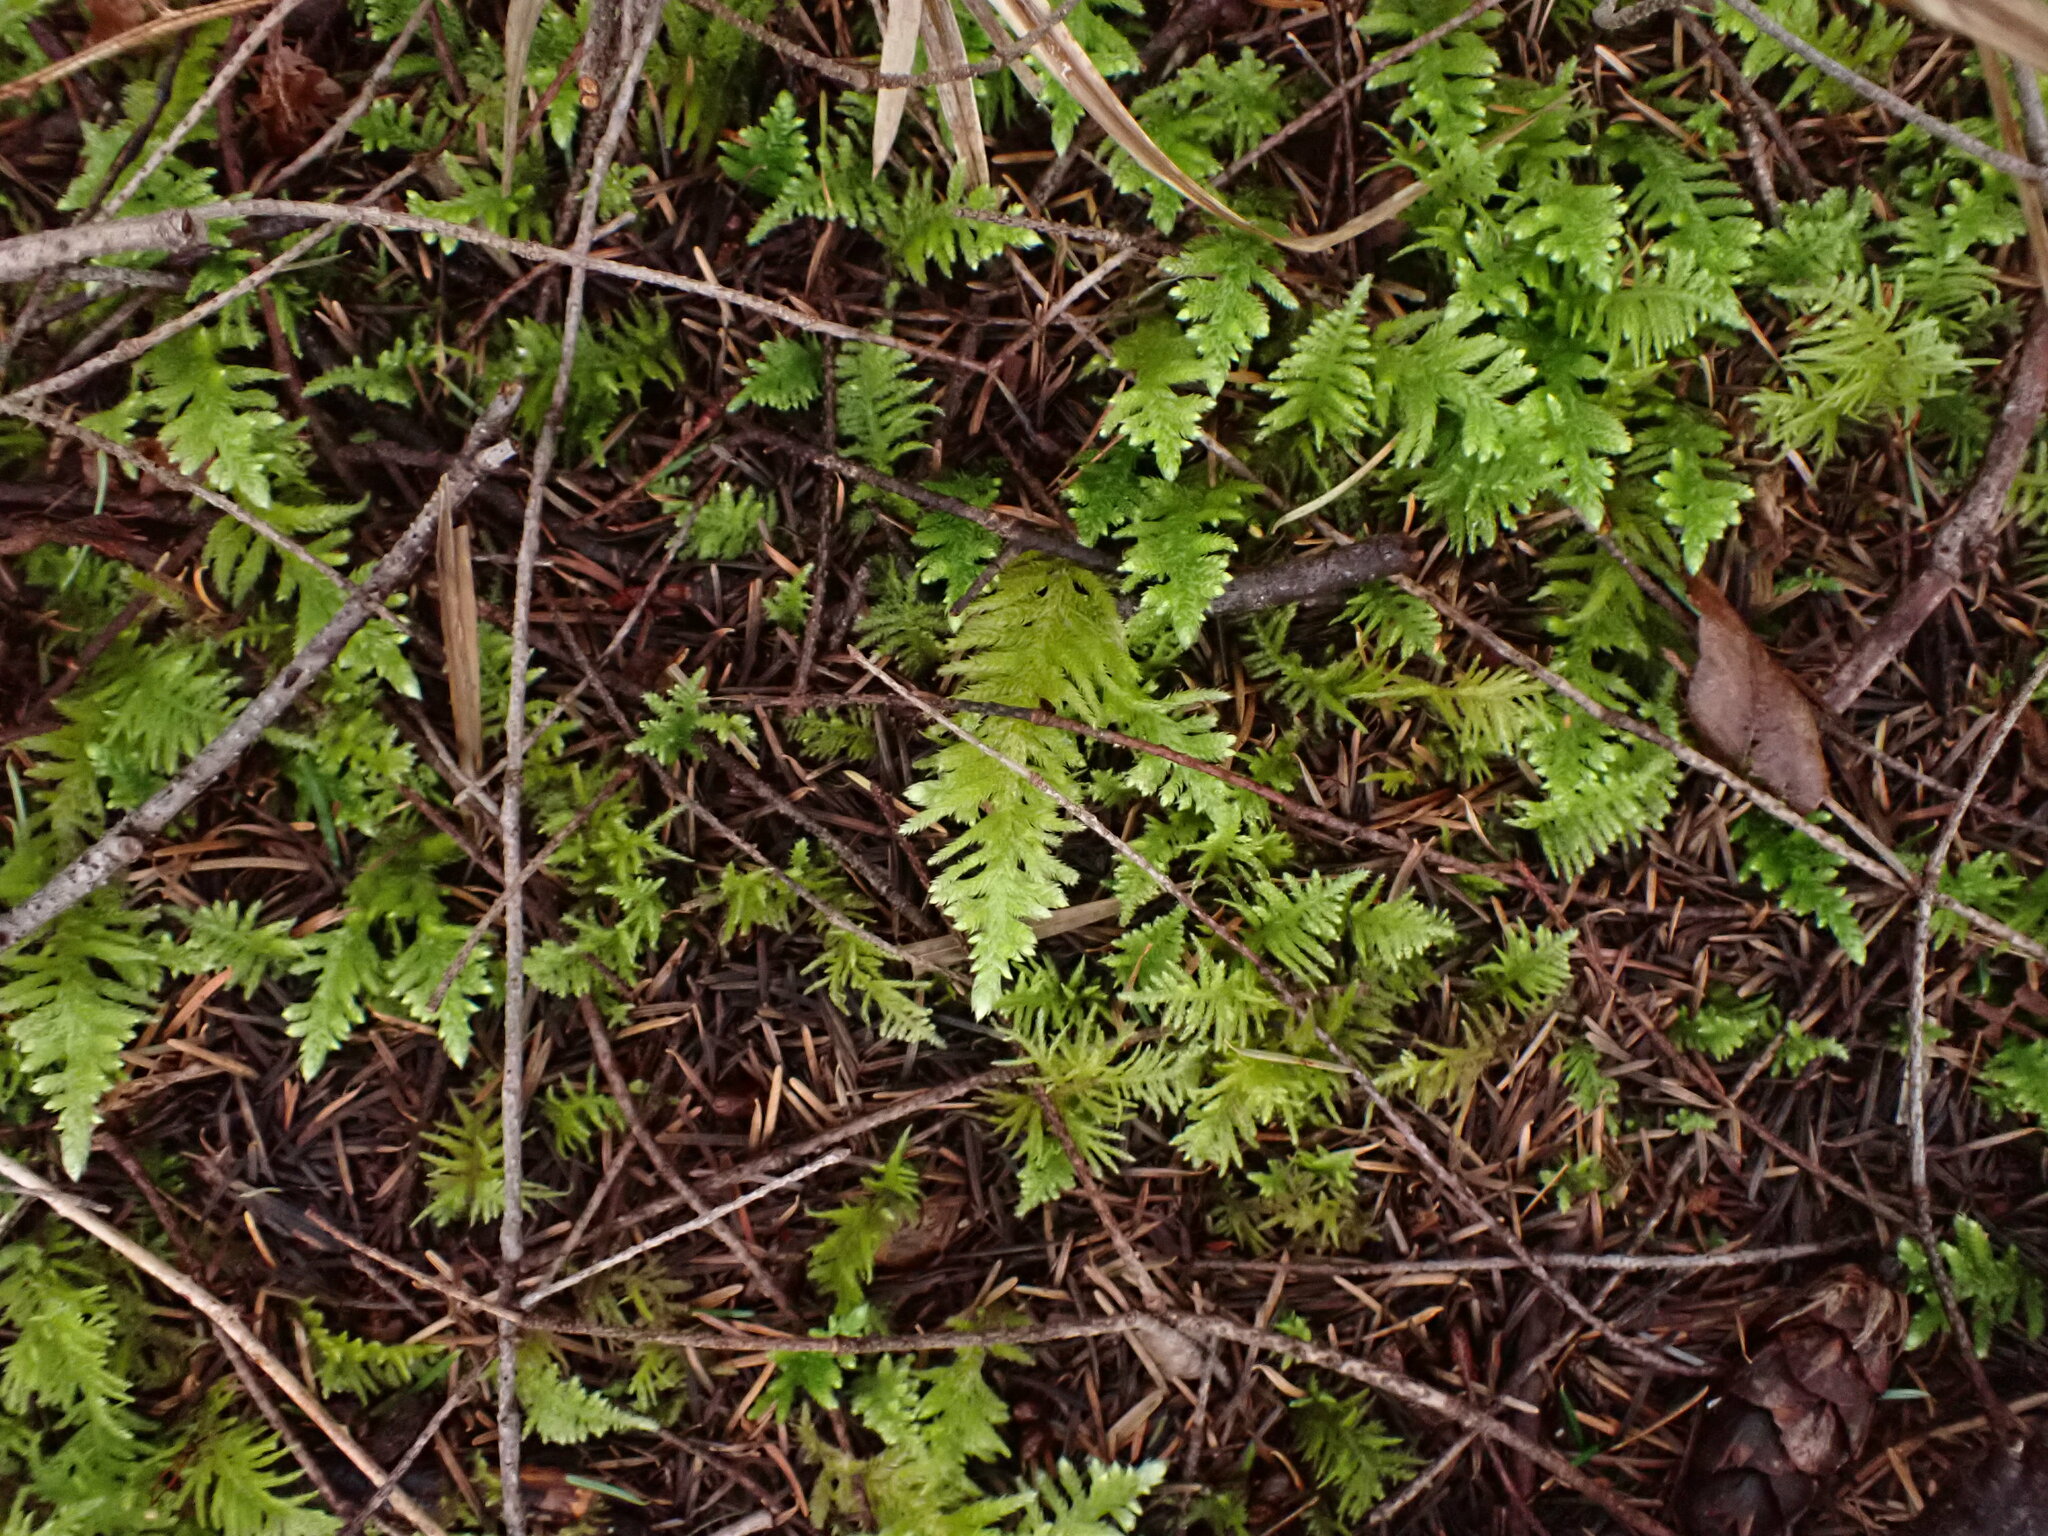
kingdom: Plantae
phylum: Bryophyta
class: Bryopsida
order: Hypnales
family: Brachytheciaceae
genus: Homalothecium
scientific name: Homalothecium megaptilum
